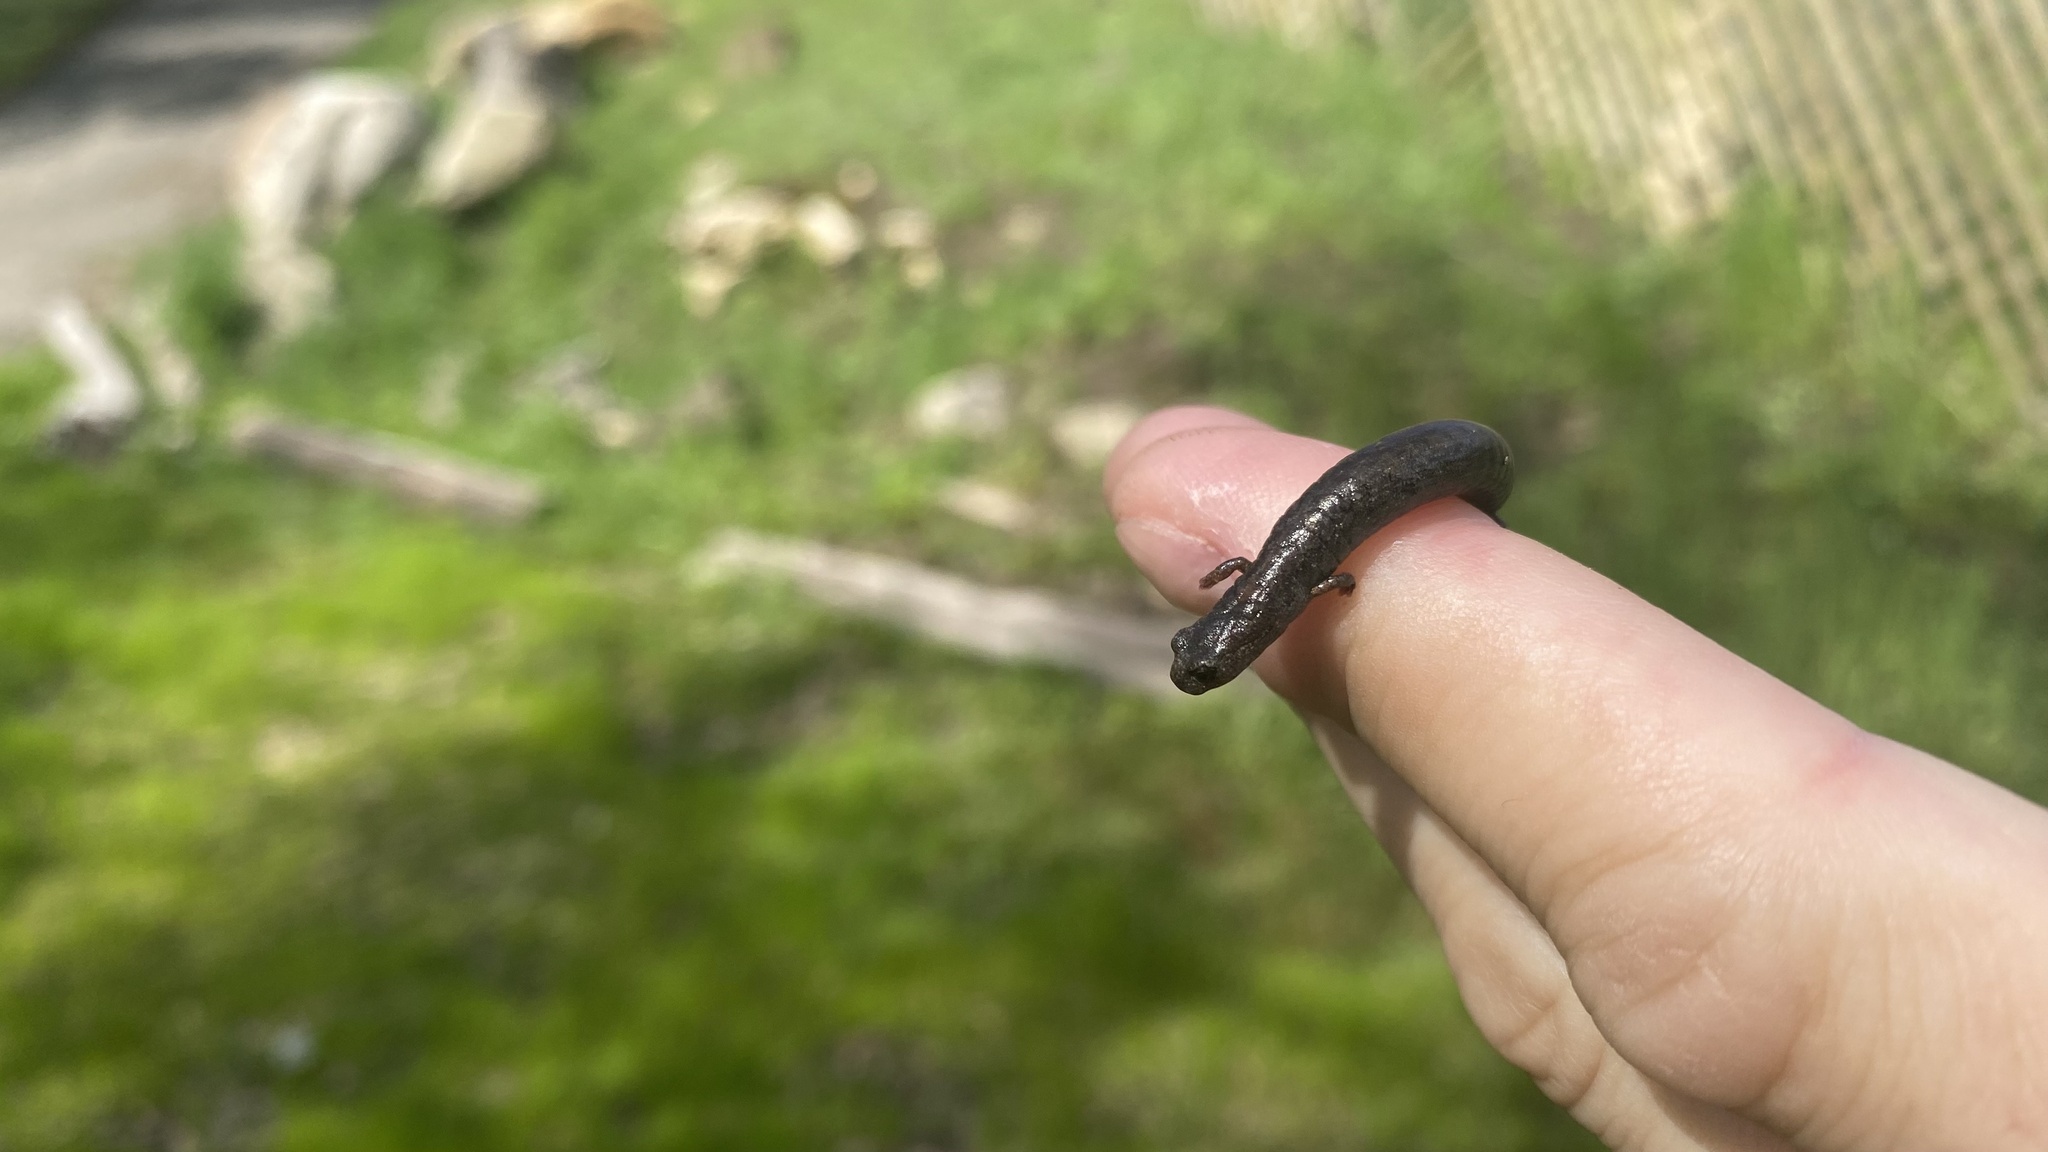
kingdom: Animalia
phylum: Chordata
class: Amphibia
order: Caudata
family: Plethodontidae
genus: Batrachoseps
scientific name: Batrachoseps gregarius
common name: Gregarious slender salamander
